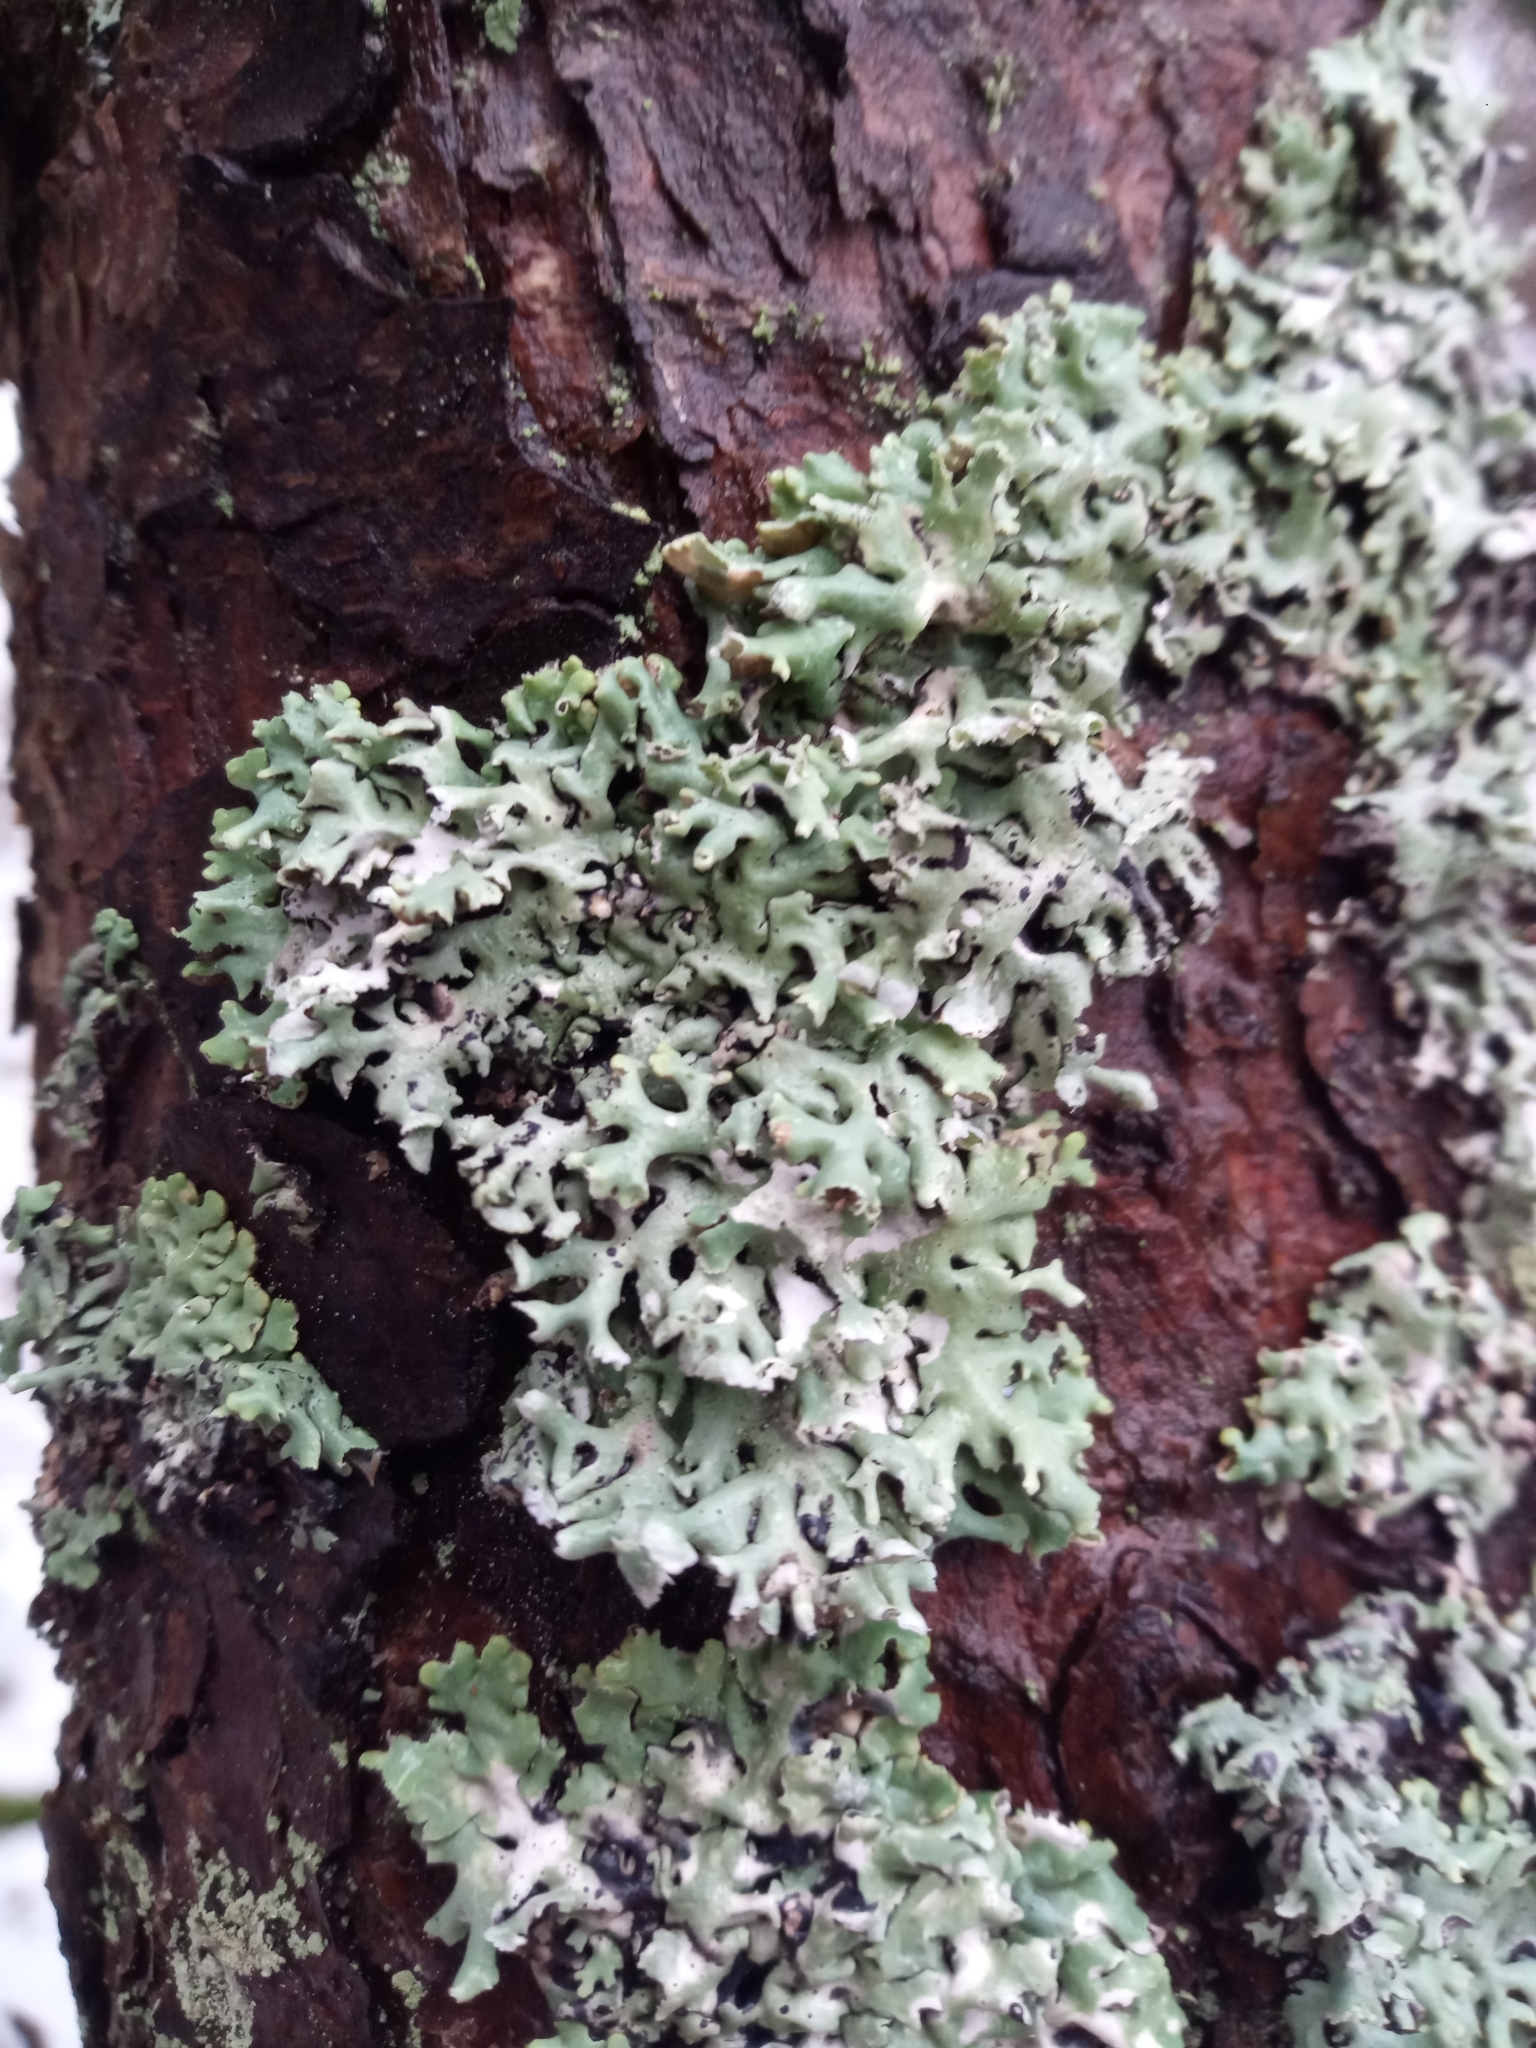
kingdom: Fungi
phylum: Ascomycota
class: Lecanoromycetes
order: Lecanorales
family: Parmeliaceae
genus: Hypogymnia
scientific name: Hypogymnia physodes
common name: Dark crottle
